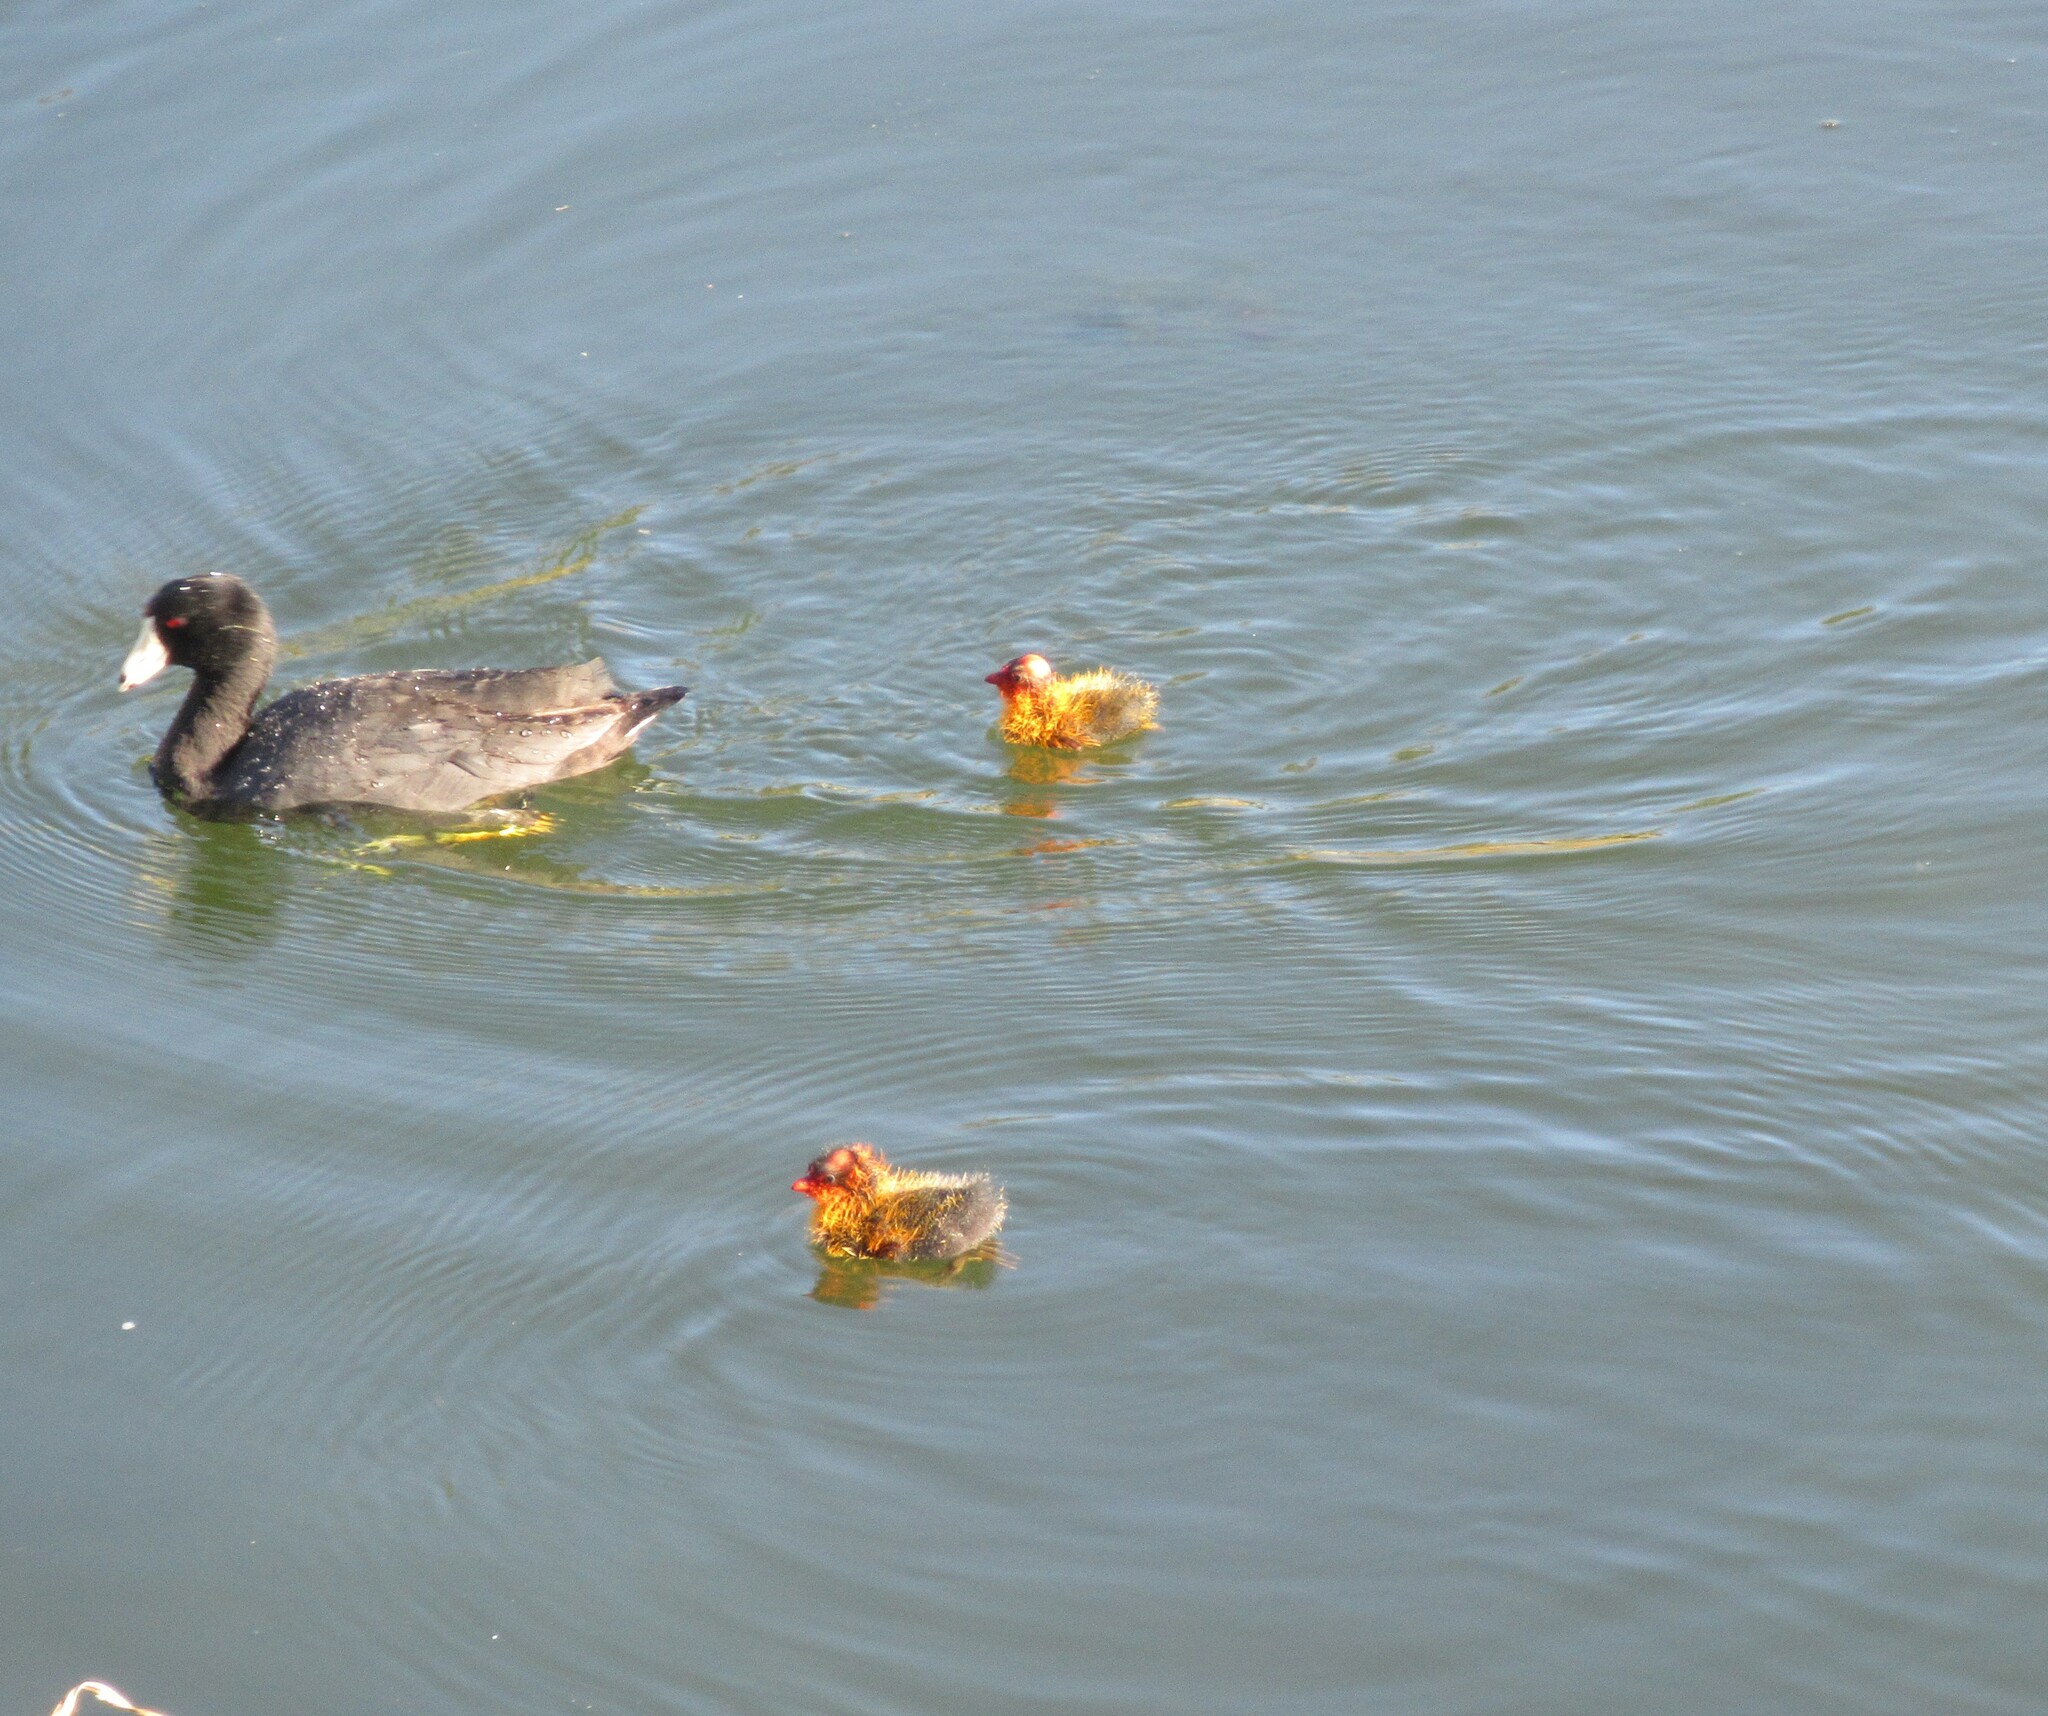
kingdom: Animalia
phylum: Chordata
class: Aves
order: Gruiformes
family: Rallidae
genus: Fulica
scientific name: Fulica americana
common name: American coot
